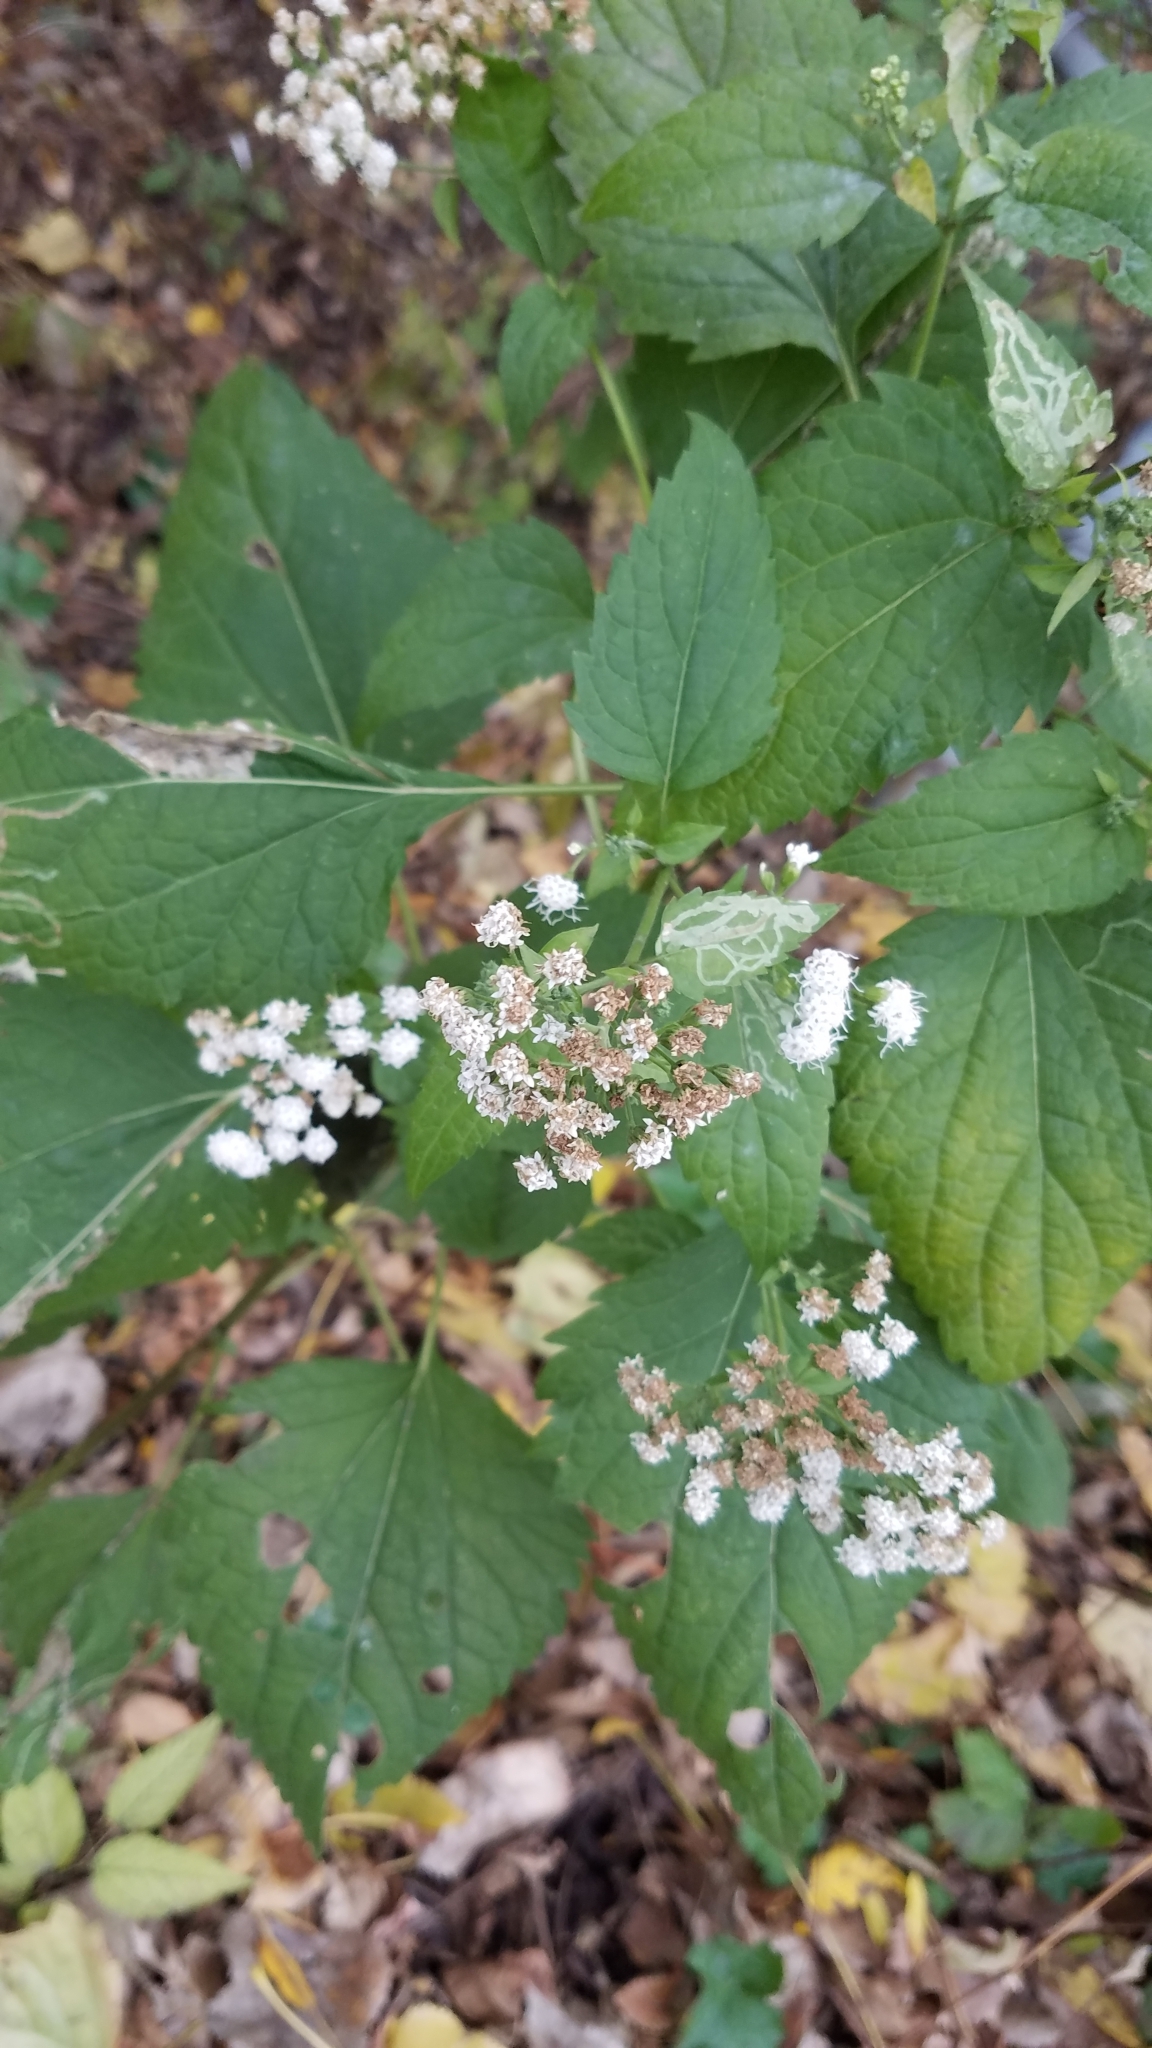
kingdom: Plantae
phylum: Tracheophyta
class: Magnoliopsida
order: Asterales
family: Asteraceae
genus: Ageratina
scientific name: Ageratina altissima
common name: White snakeroot
